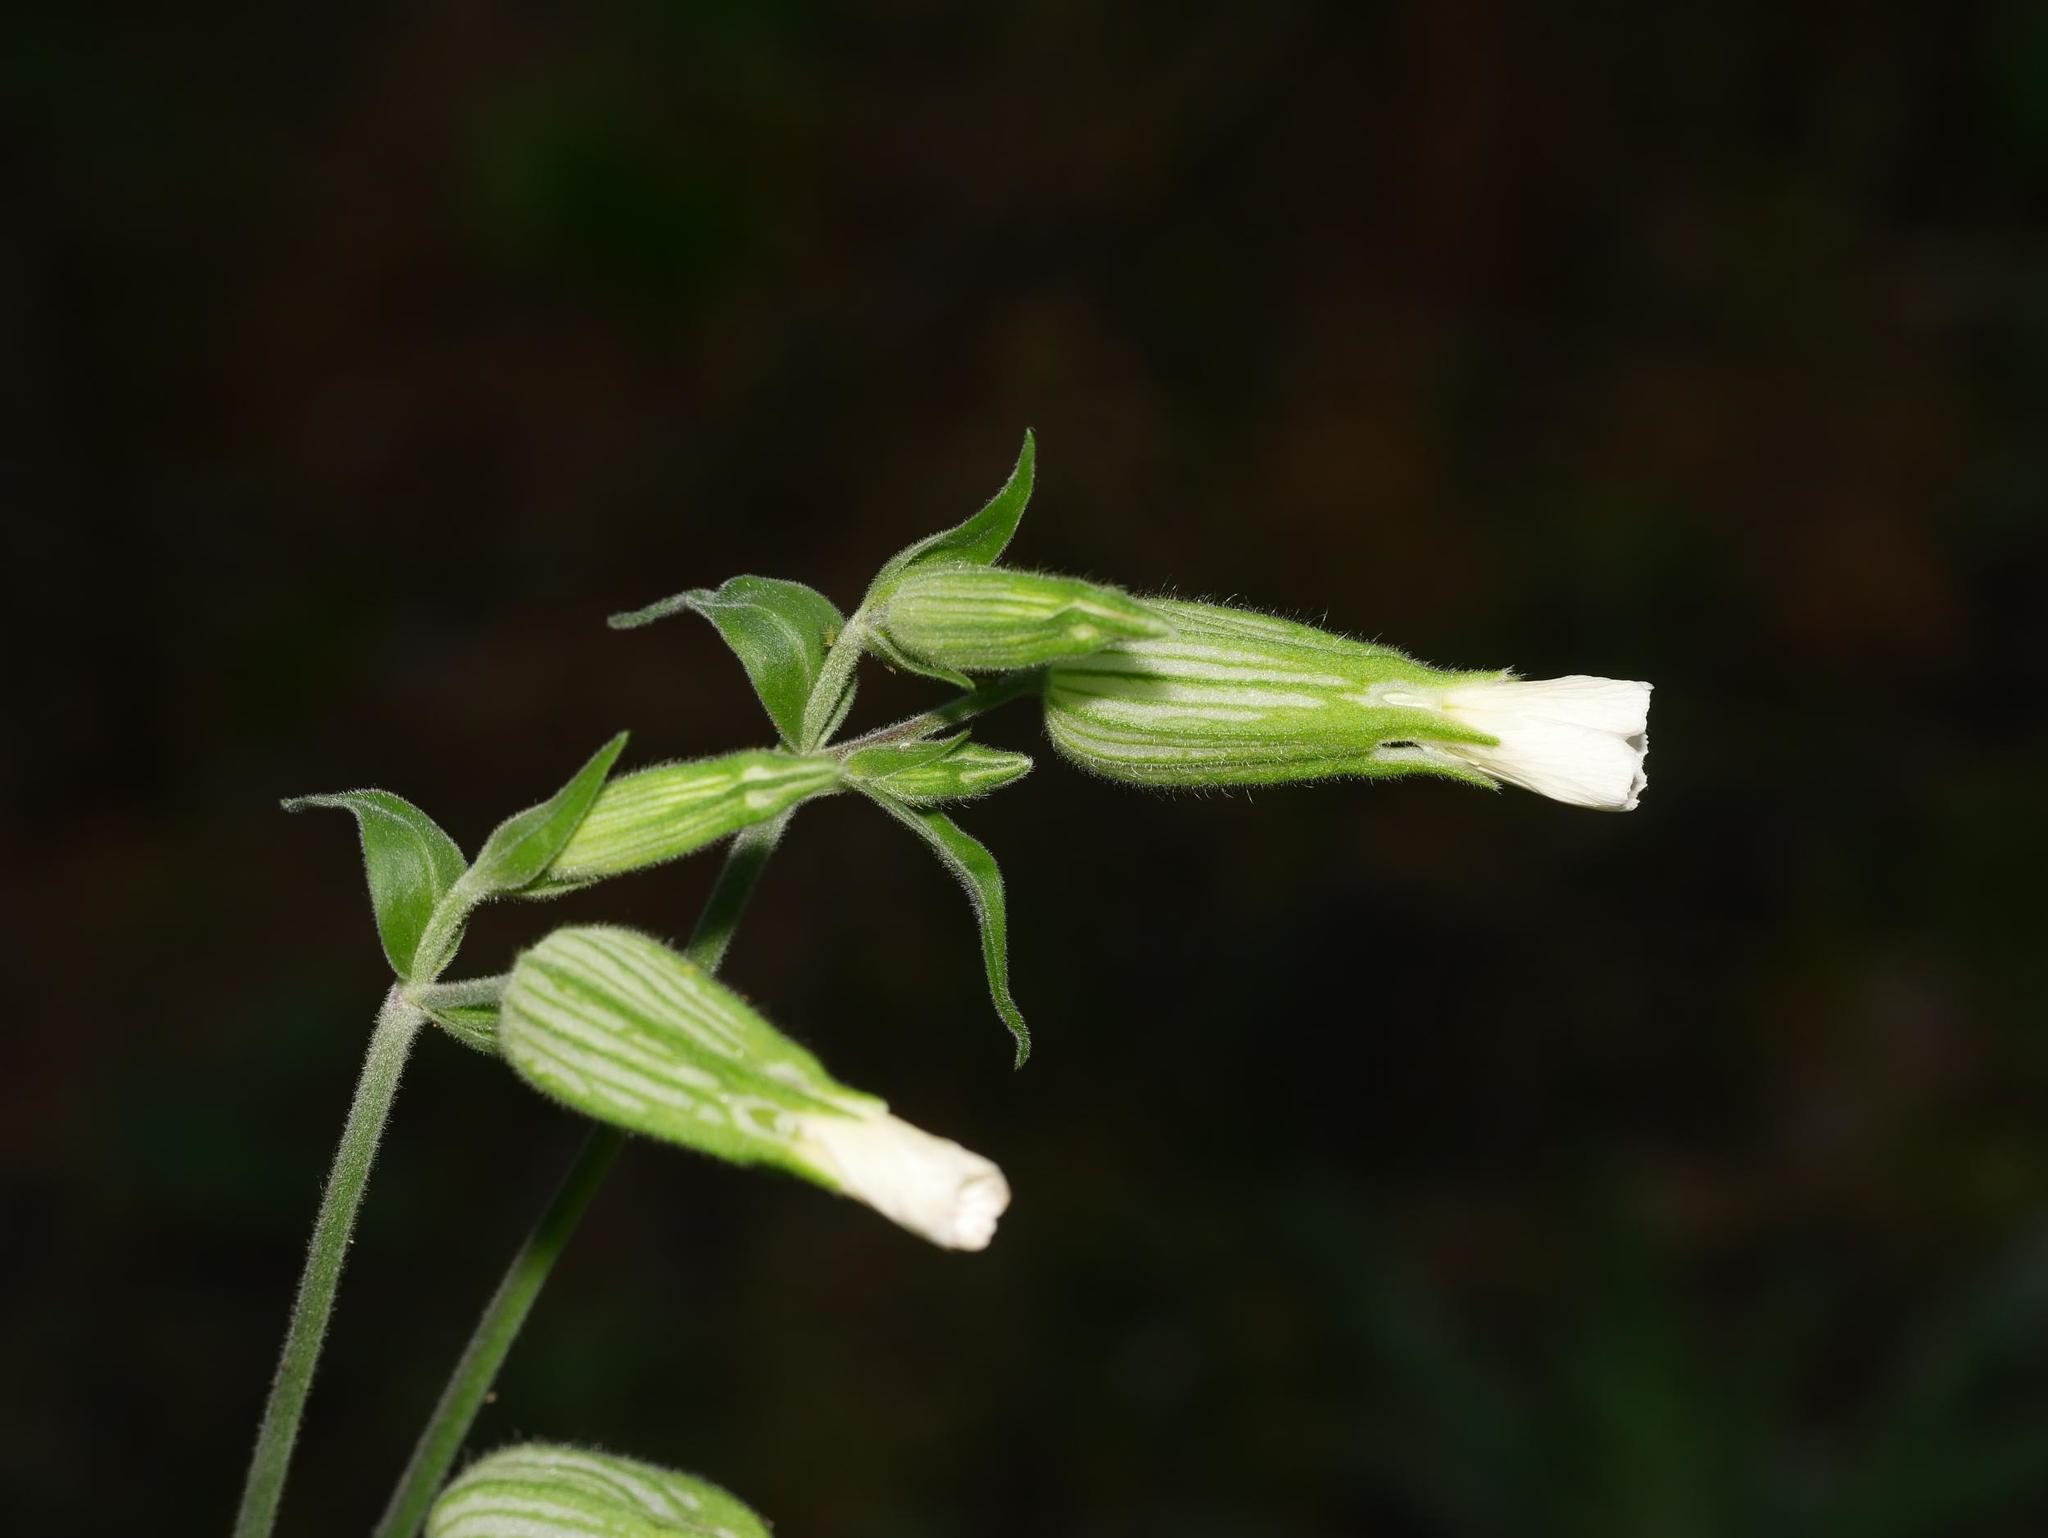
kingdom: Plantae
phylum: Tracheophyta
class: Magnoliopsida
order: Caryophyllales
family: Caryophyllaceae
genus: Silene
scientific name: Silene latifolia
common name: White campion
